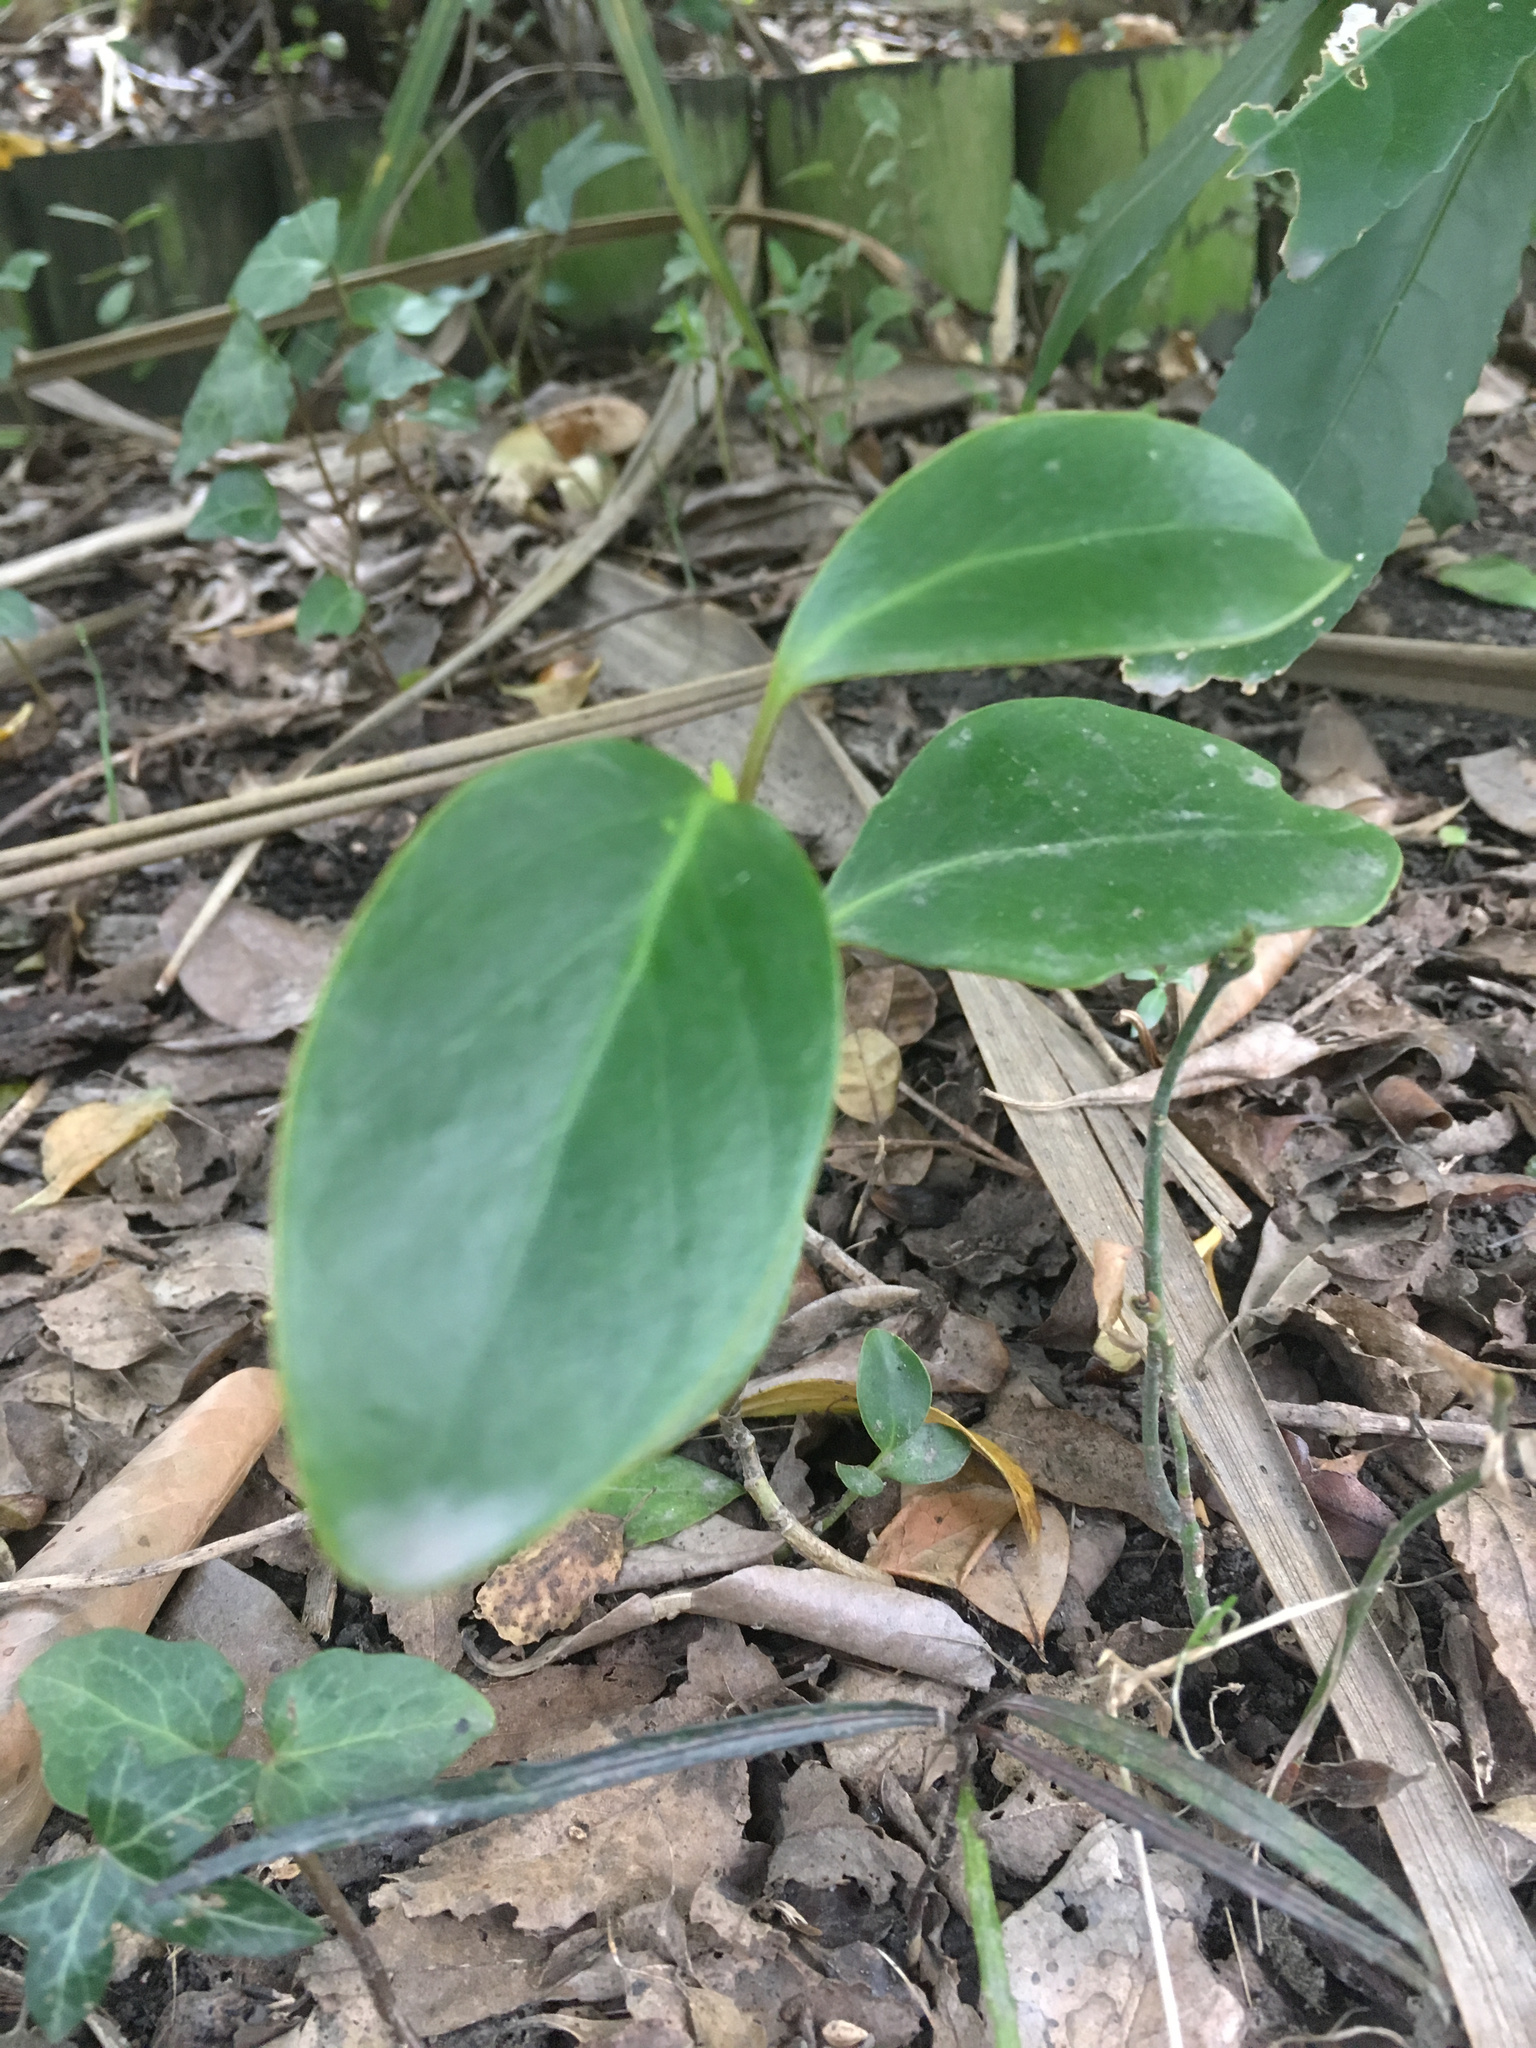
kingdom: Plantae
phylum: Tracheophyta
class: Magnoliopsida
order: Apiales
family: Griseliniaceae
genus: Griselinia
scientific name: Griselinia littoralis
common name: New zealand broadleaf
